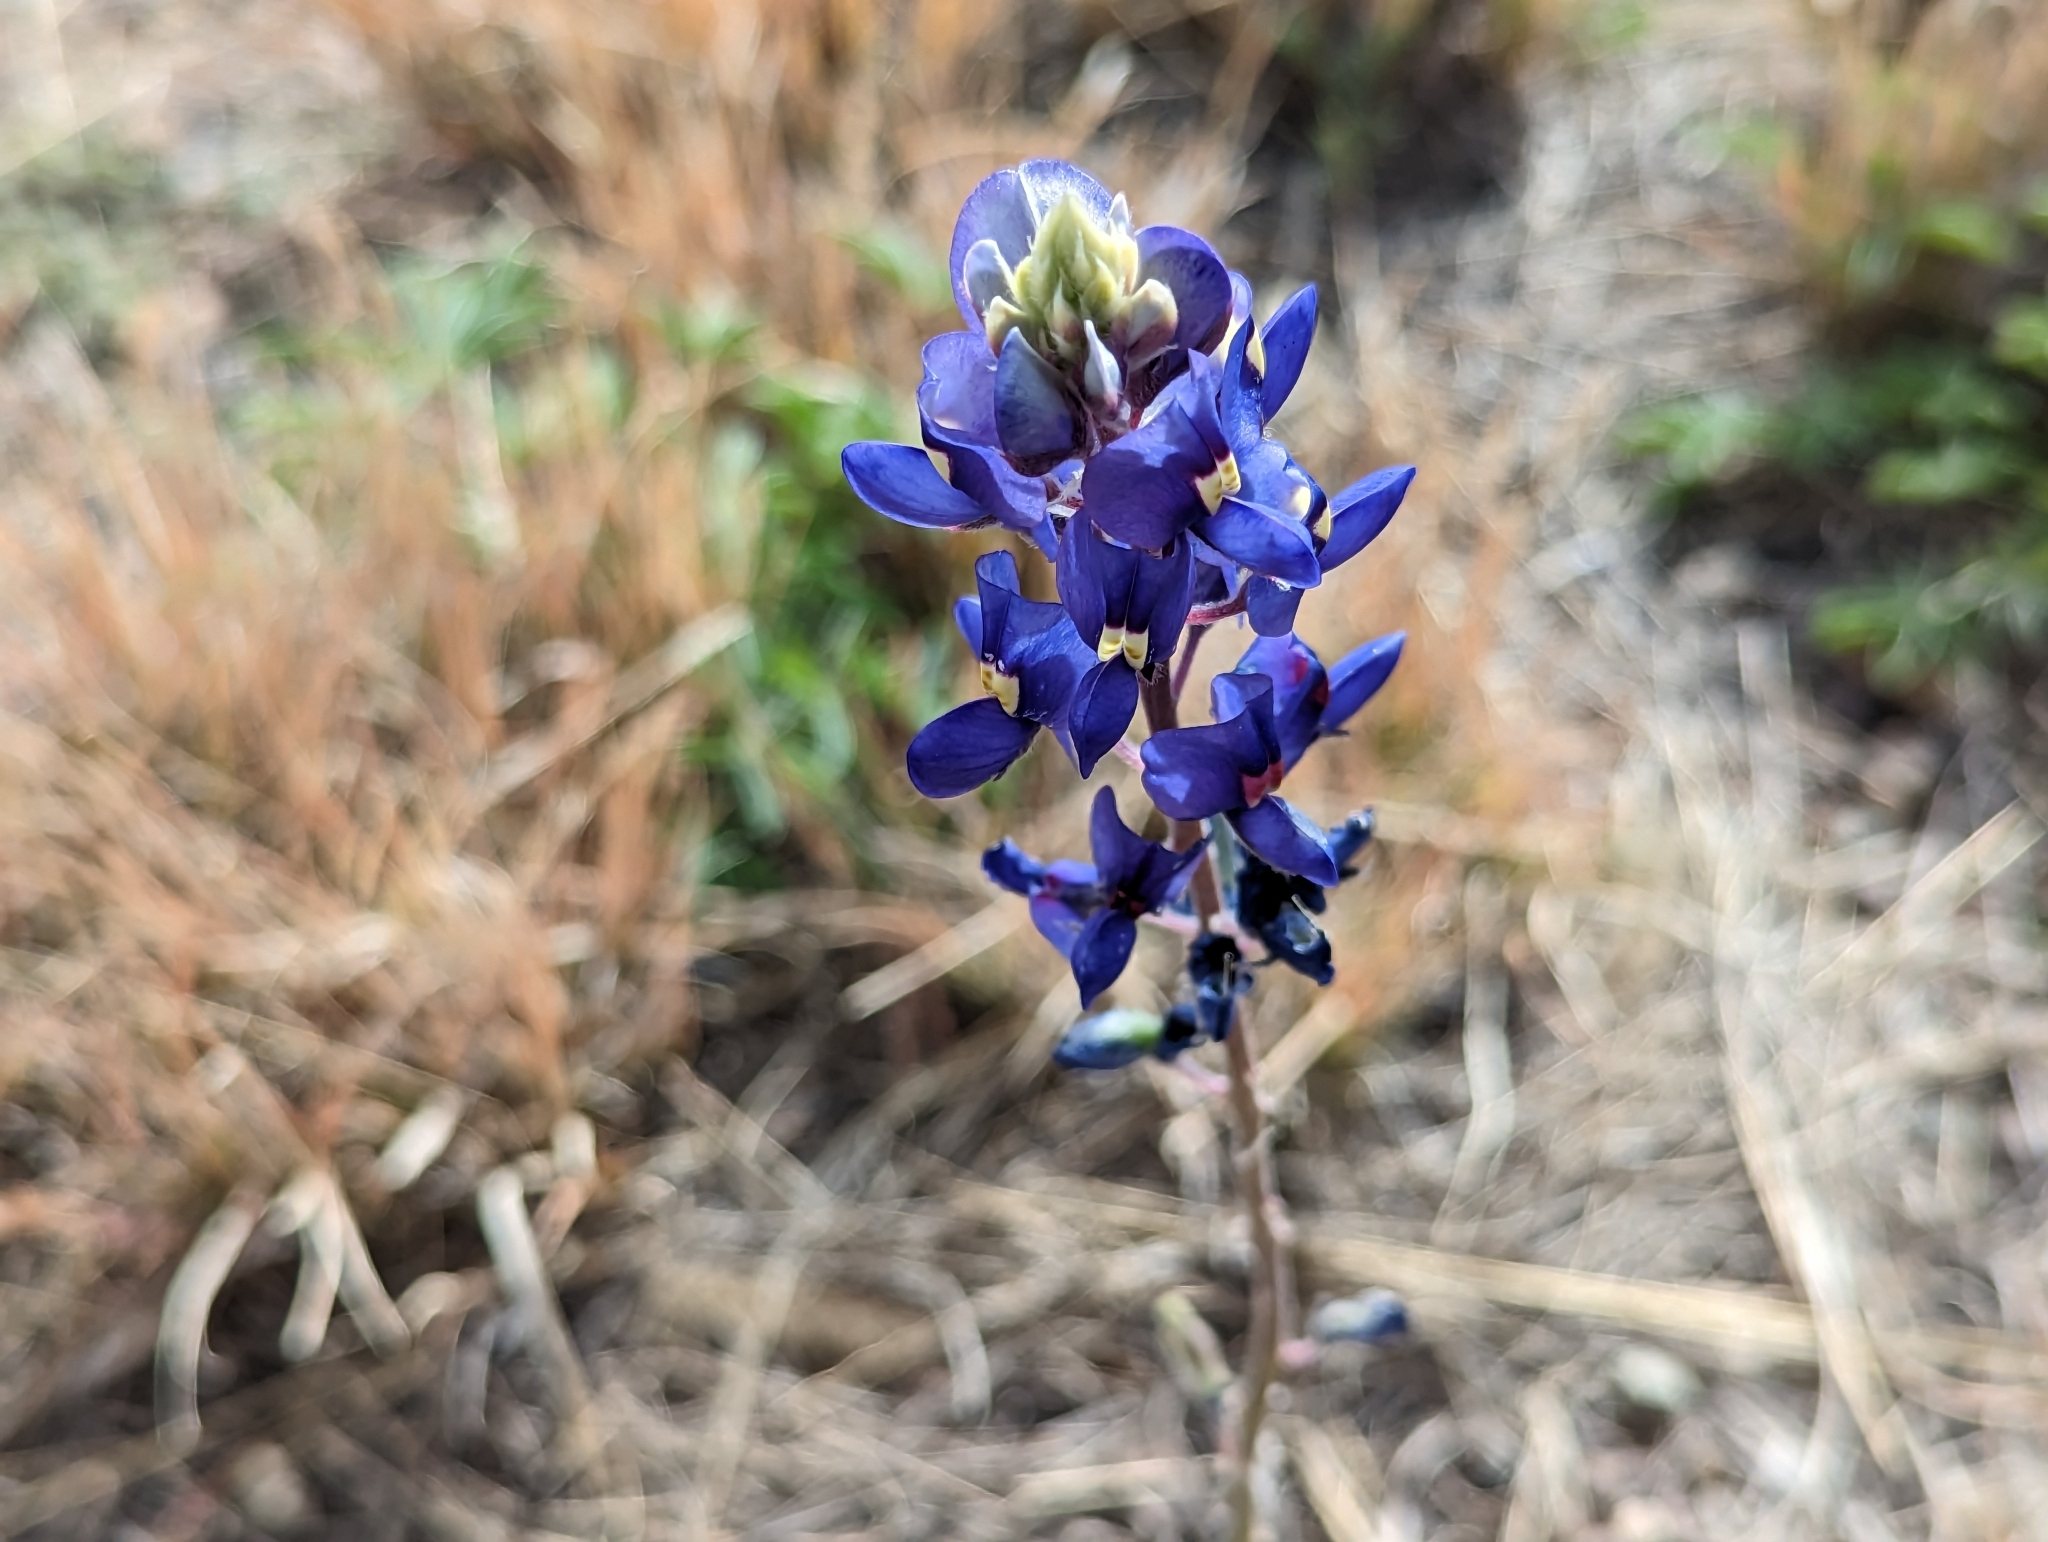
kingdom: Plantae
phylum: Tracheophyta
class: Magnoliopsida
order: Fabales
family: Fabaceae
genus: Lupinus
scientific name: Lupinus havardii
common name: Chisos bluebonnet
